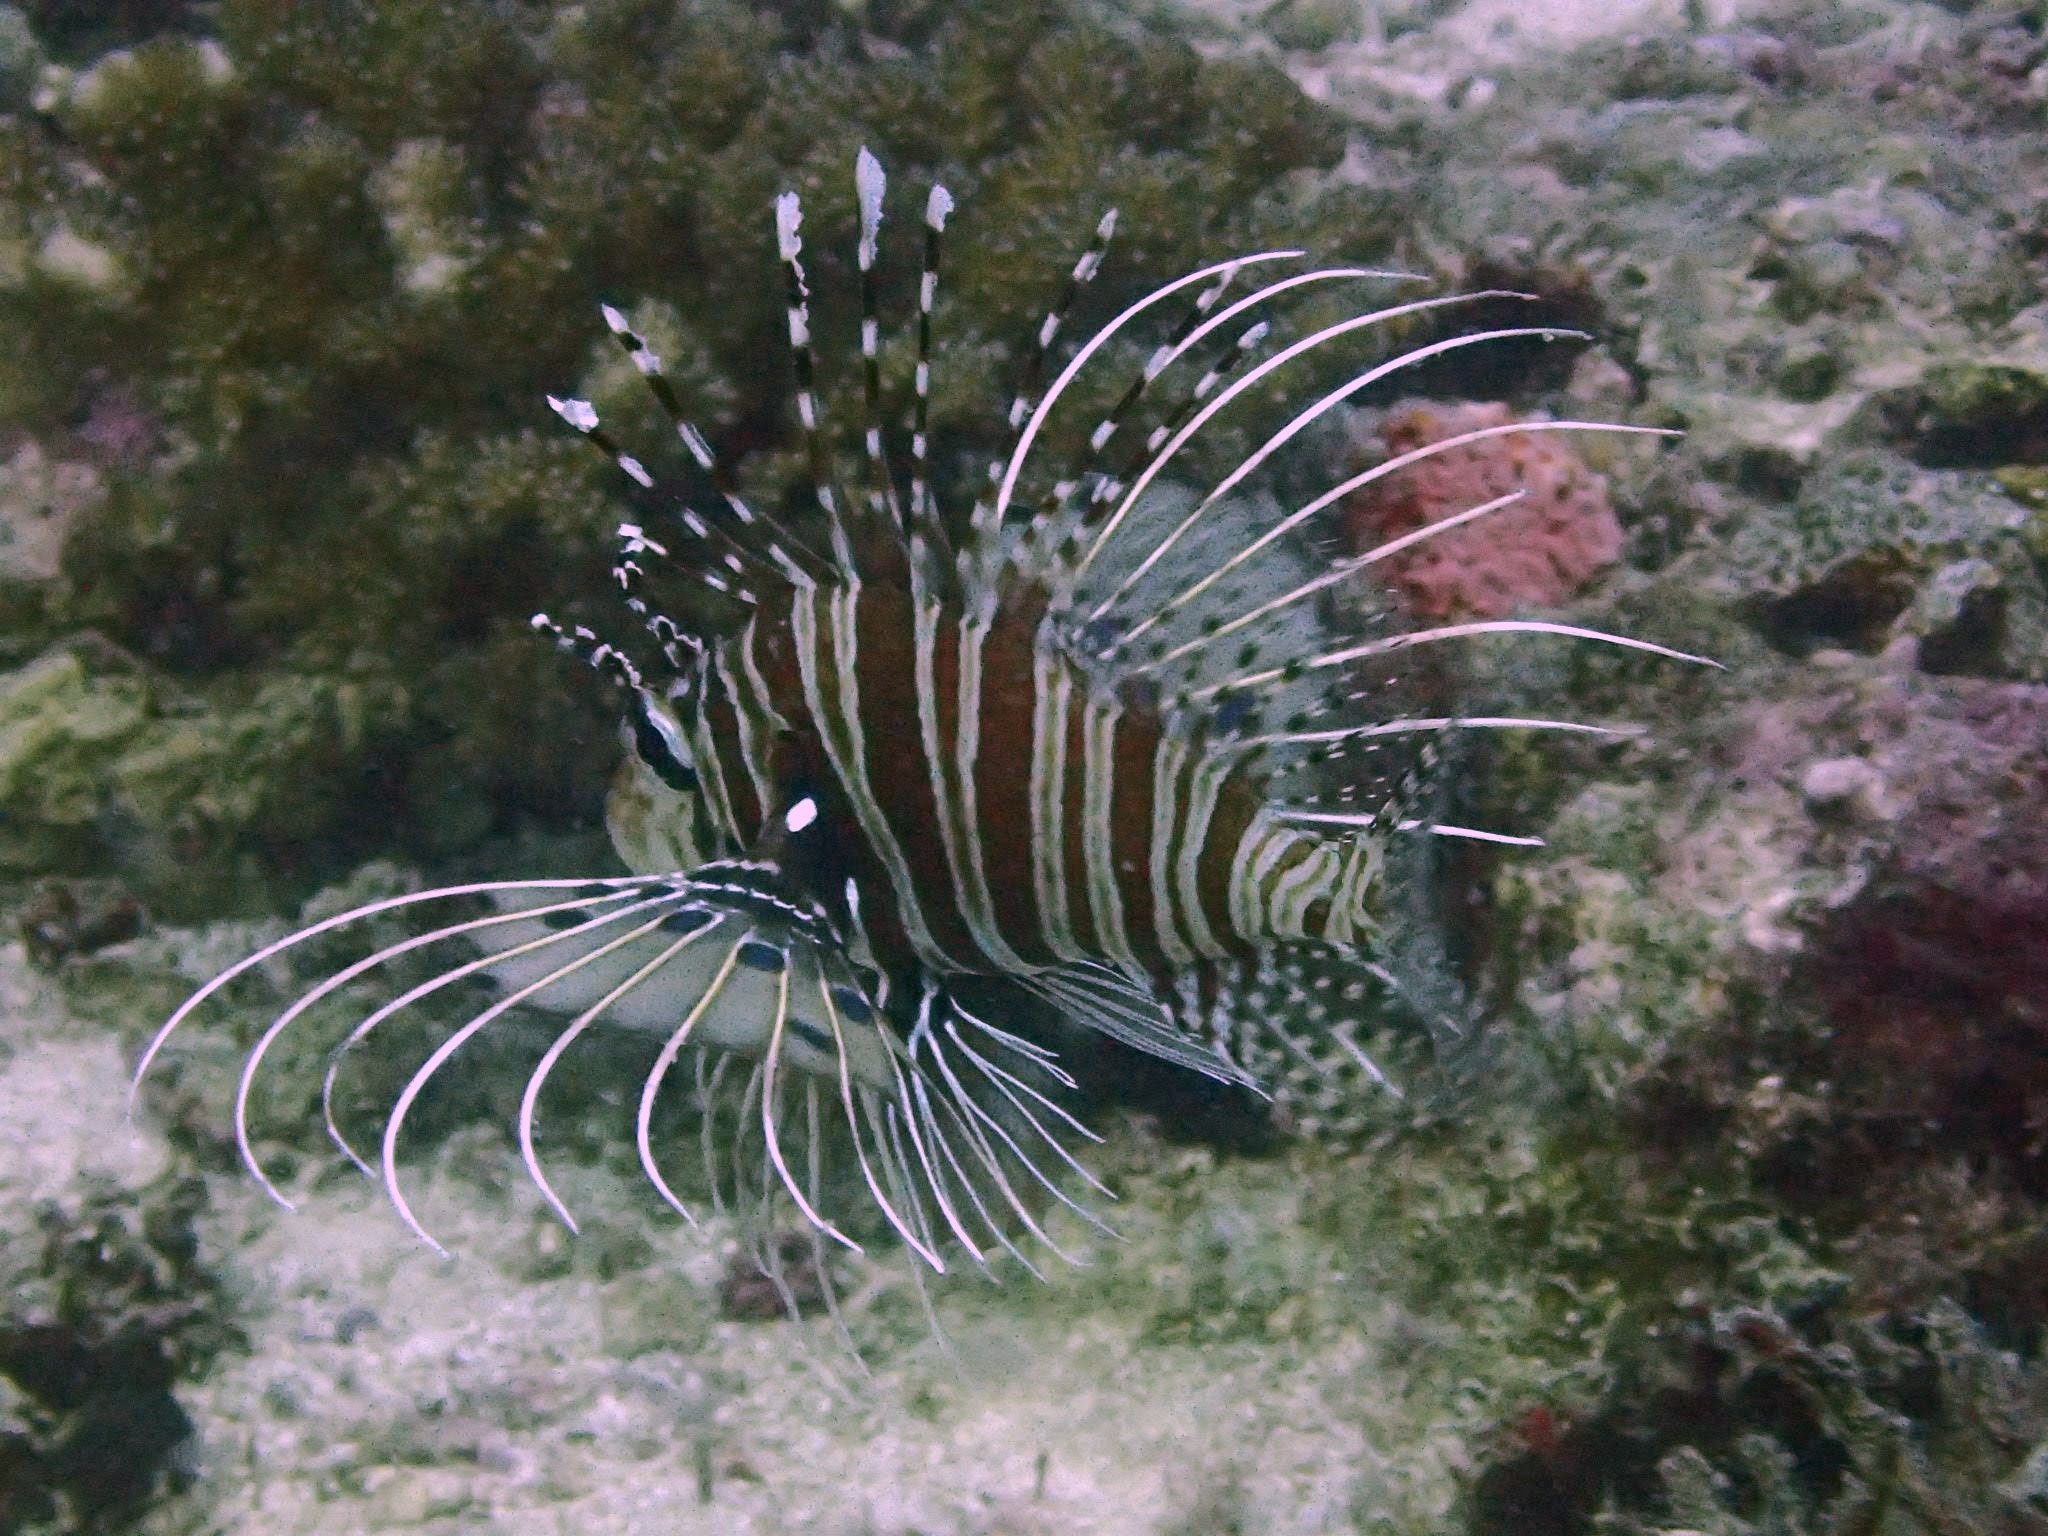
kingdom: Animalia
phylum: Chordata
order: Scorpaeniformes
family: Scorpaenidae
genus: Pterois
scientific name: Pterois antennata
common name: Spotfin lionfish
